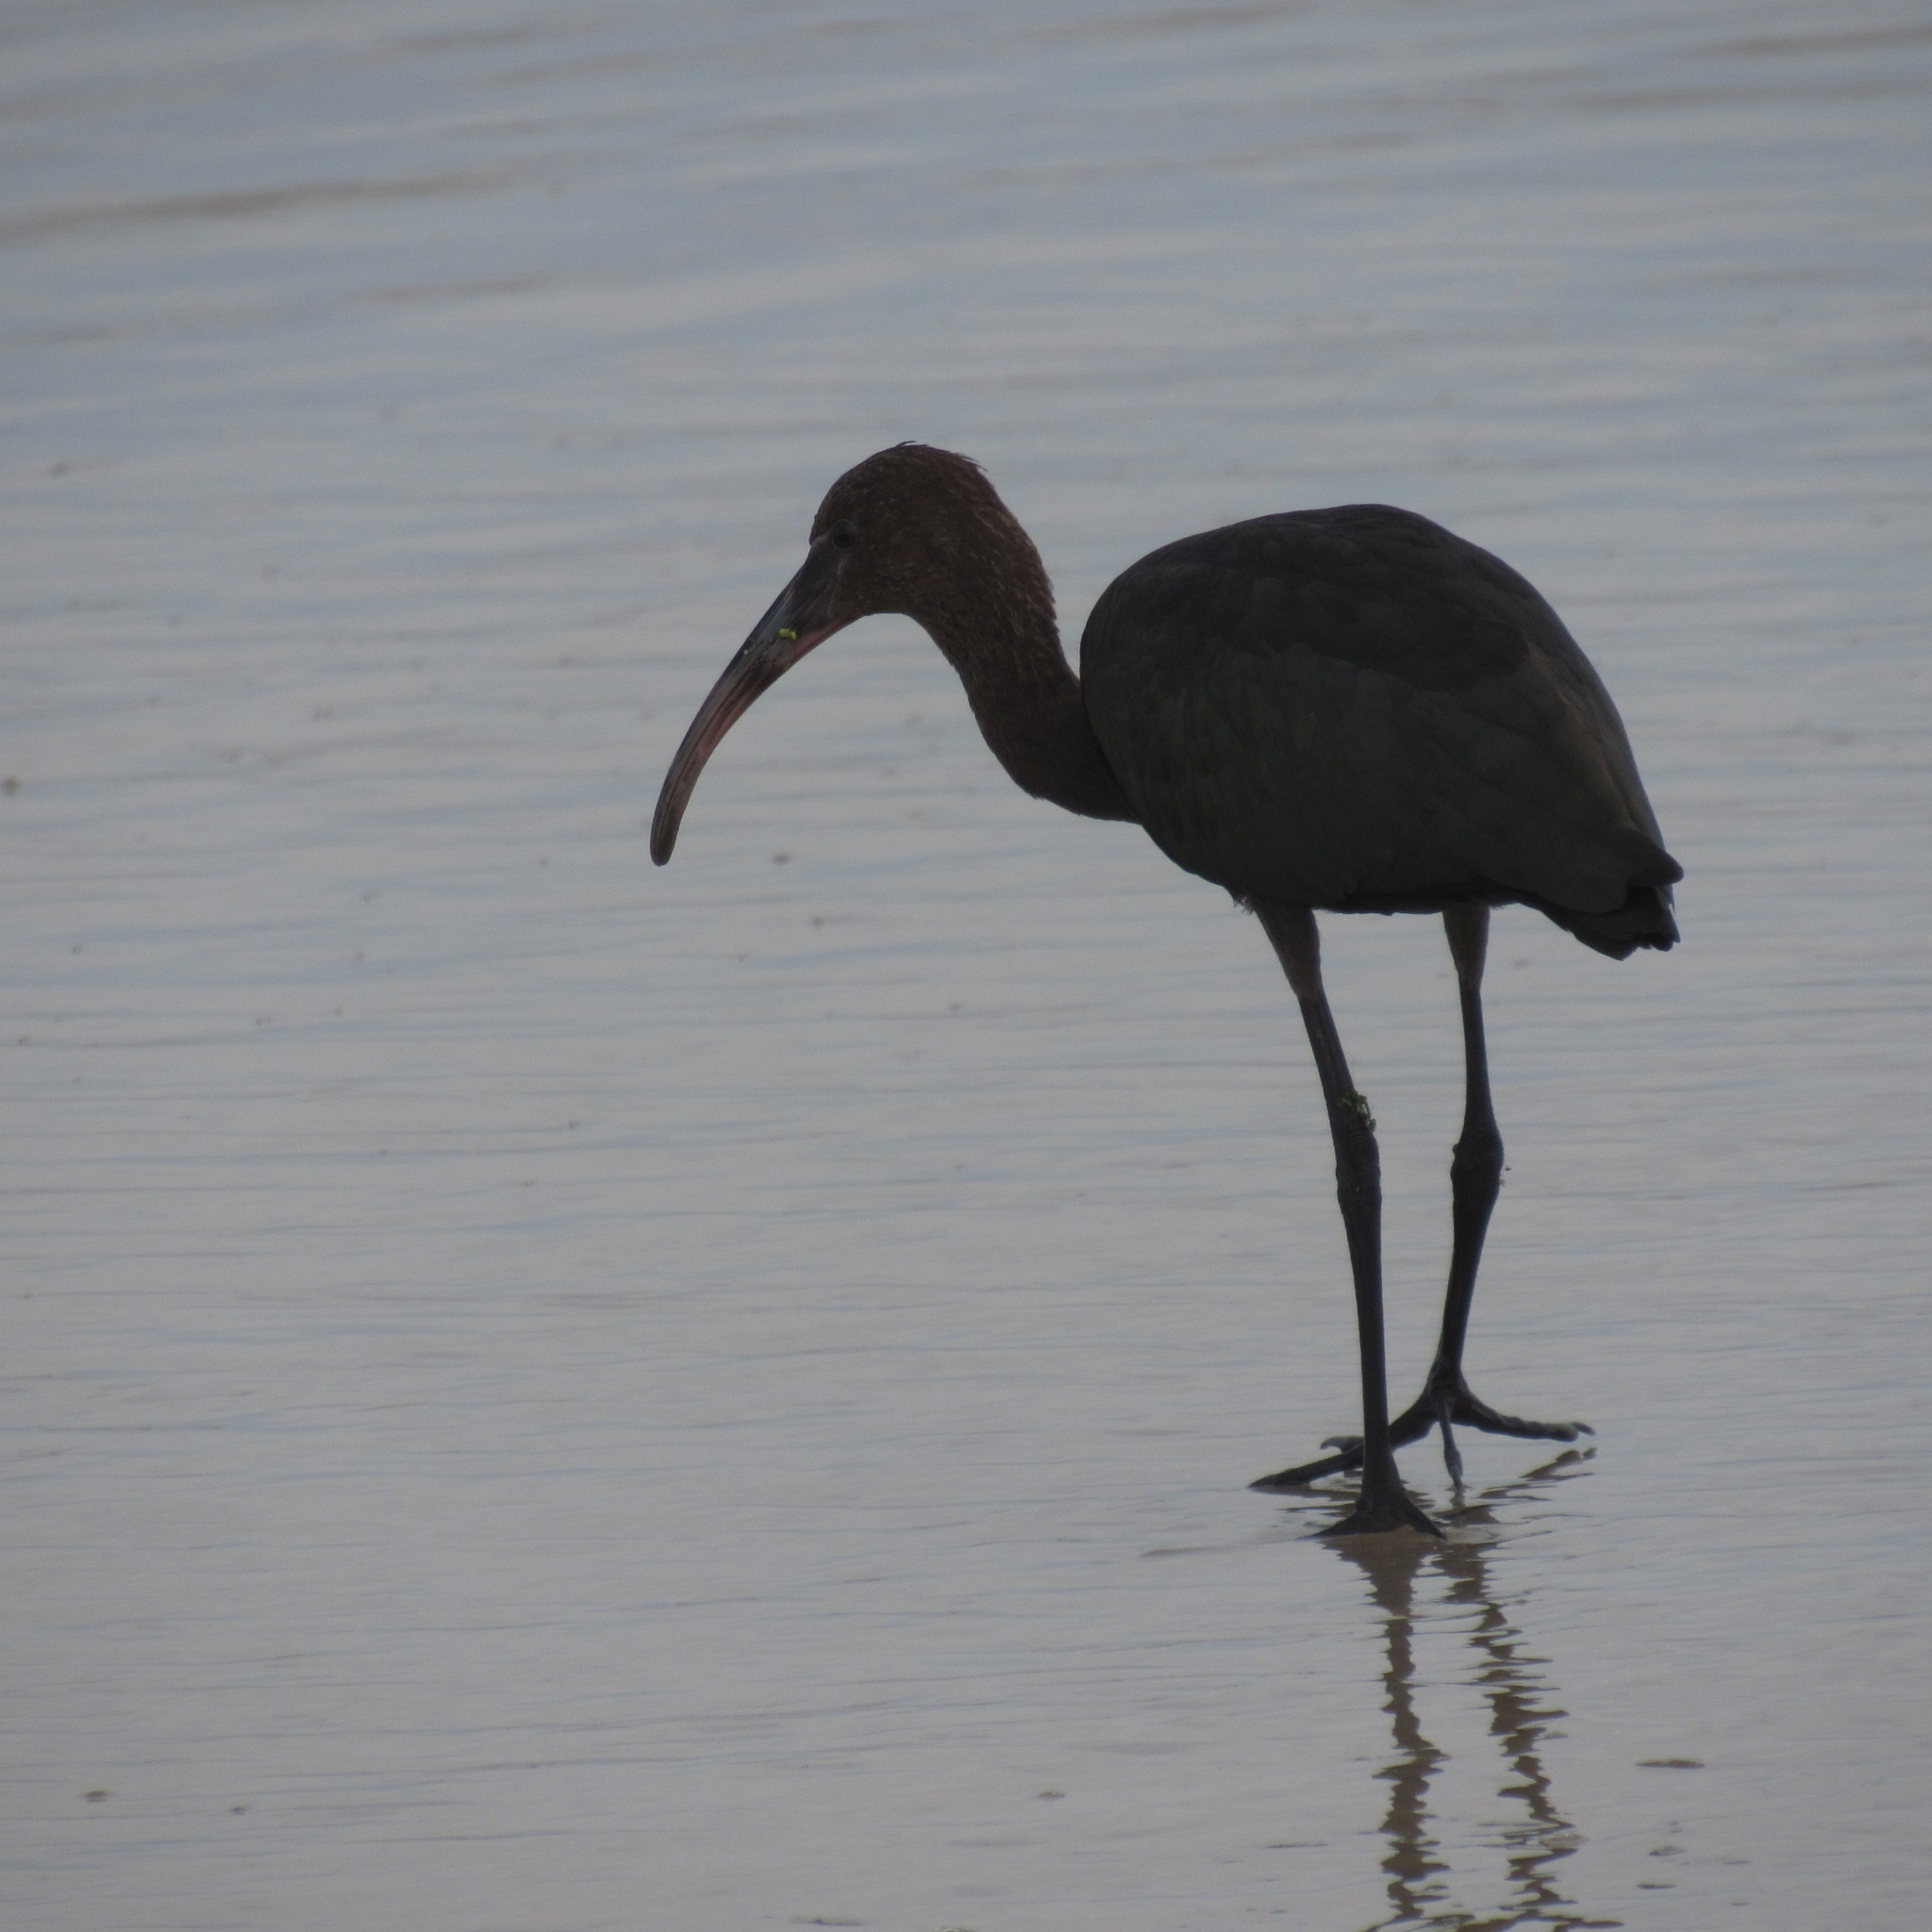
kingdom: Animalia
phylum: Chordata
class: Aves
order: Pelecaniformes
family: Threskiornithidae
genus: Plegadis
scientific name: Plegadis chihi
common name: White-faced ibis
